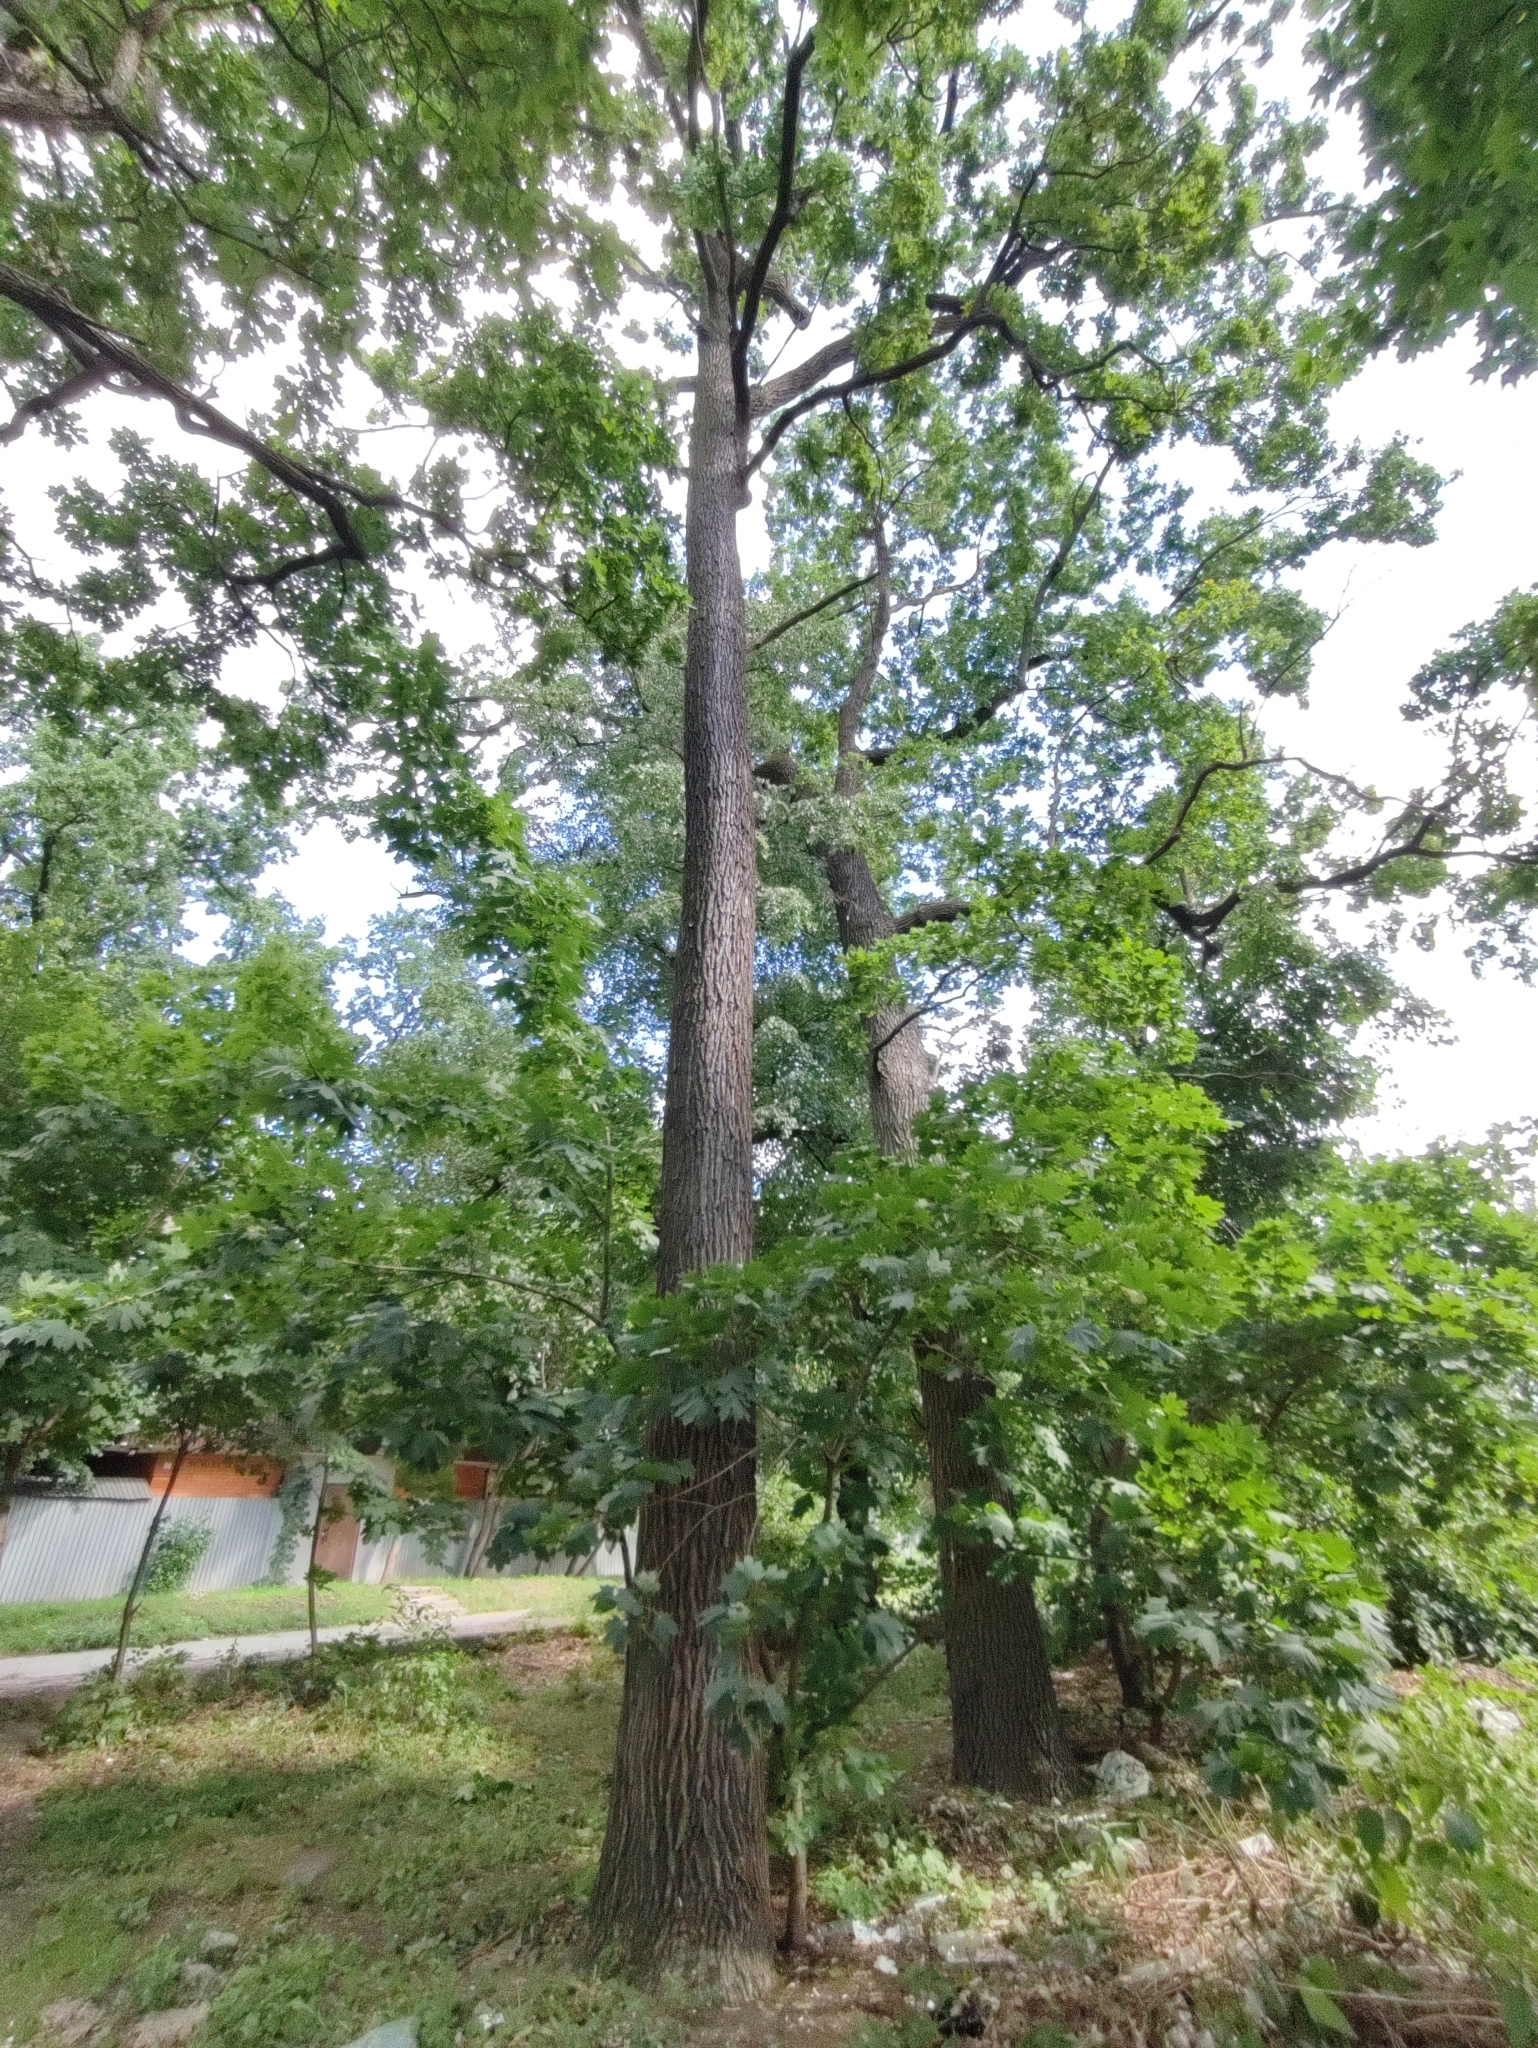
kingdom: Plantae
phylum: Tracheophyta
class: Magnoliopsida
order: Fagales
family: Fagaceae
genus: Quercus
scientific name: Quercus robur
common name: Pedunculate oak
